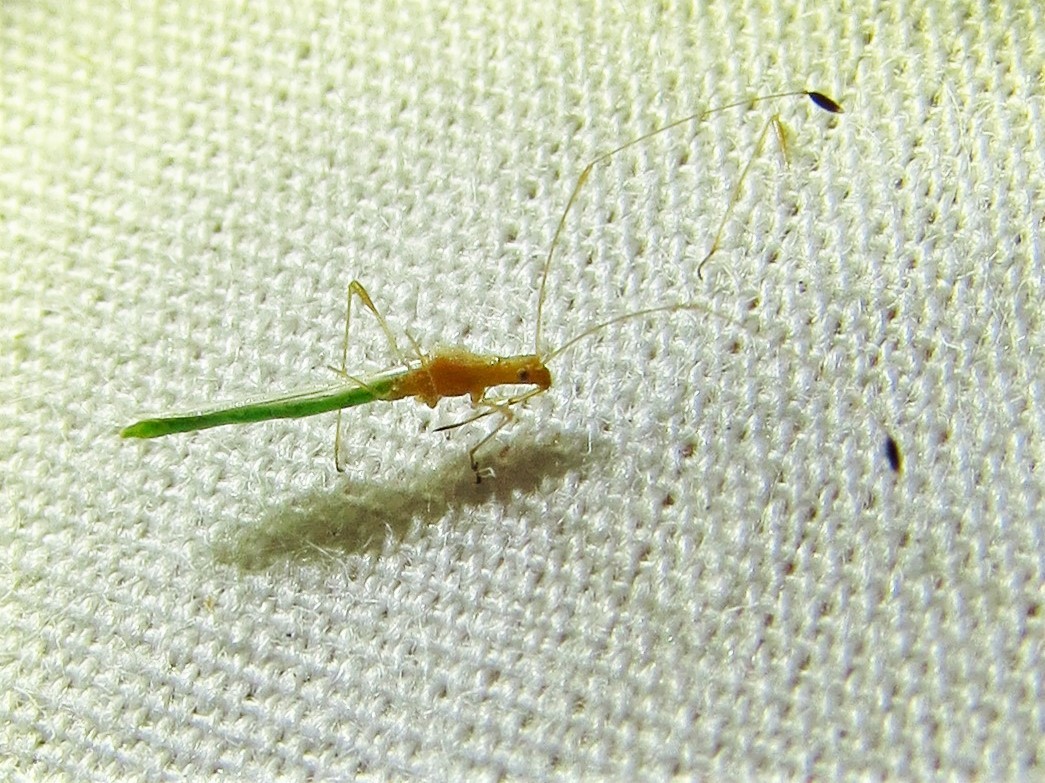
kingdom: Animalia
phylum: Arthropoda
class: Insecta
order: Hemiptera
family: Berytidae
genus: Metacanthus
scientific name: Metacanthus multispinus
